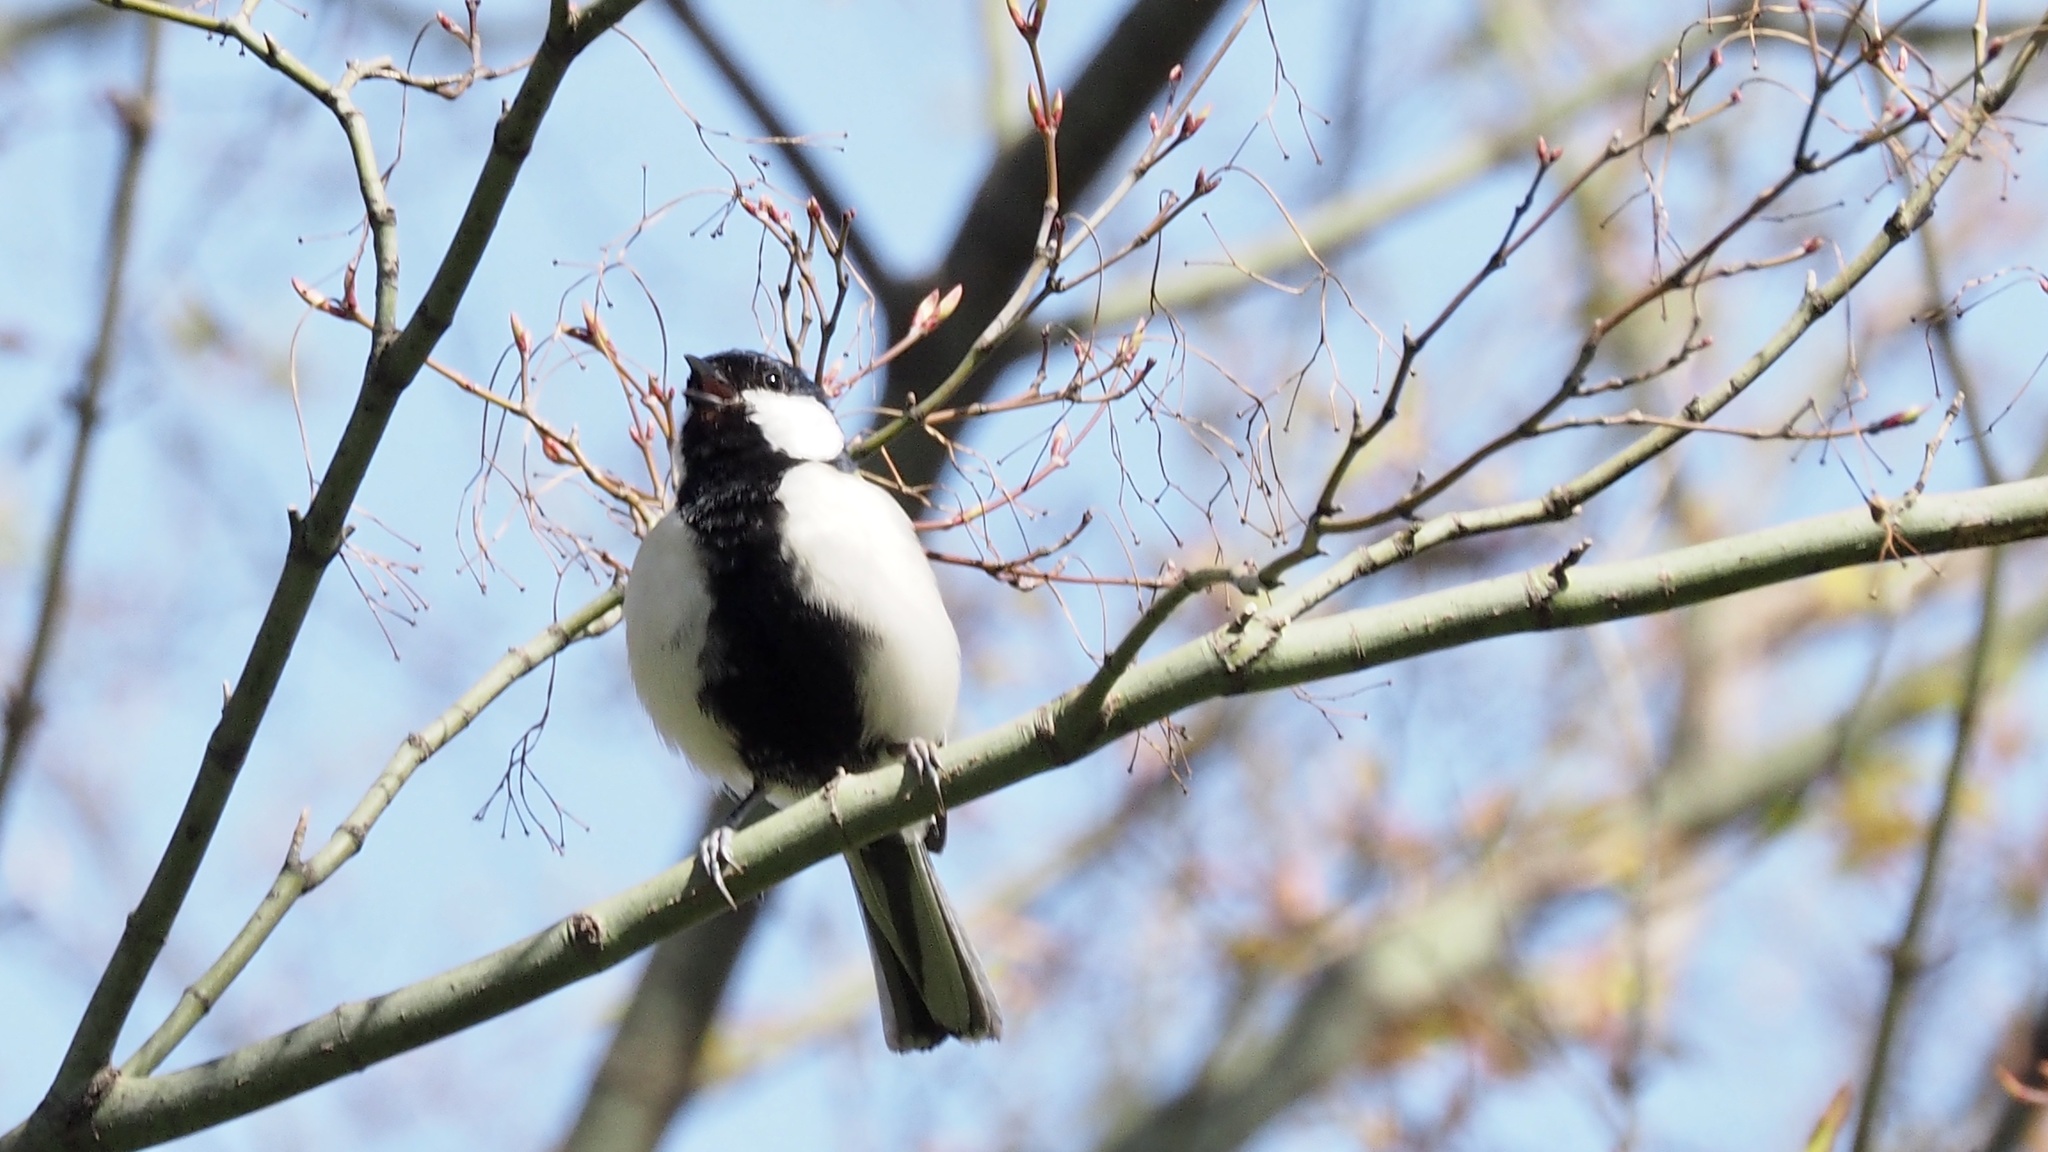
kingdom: Animalia
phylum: Chordata
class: Aves
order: Passeriformes
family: Paridae
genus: Parus
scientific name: Parus minor
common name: Japanese tit
